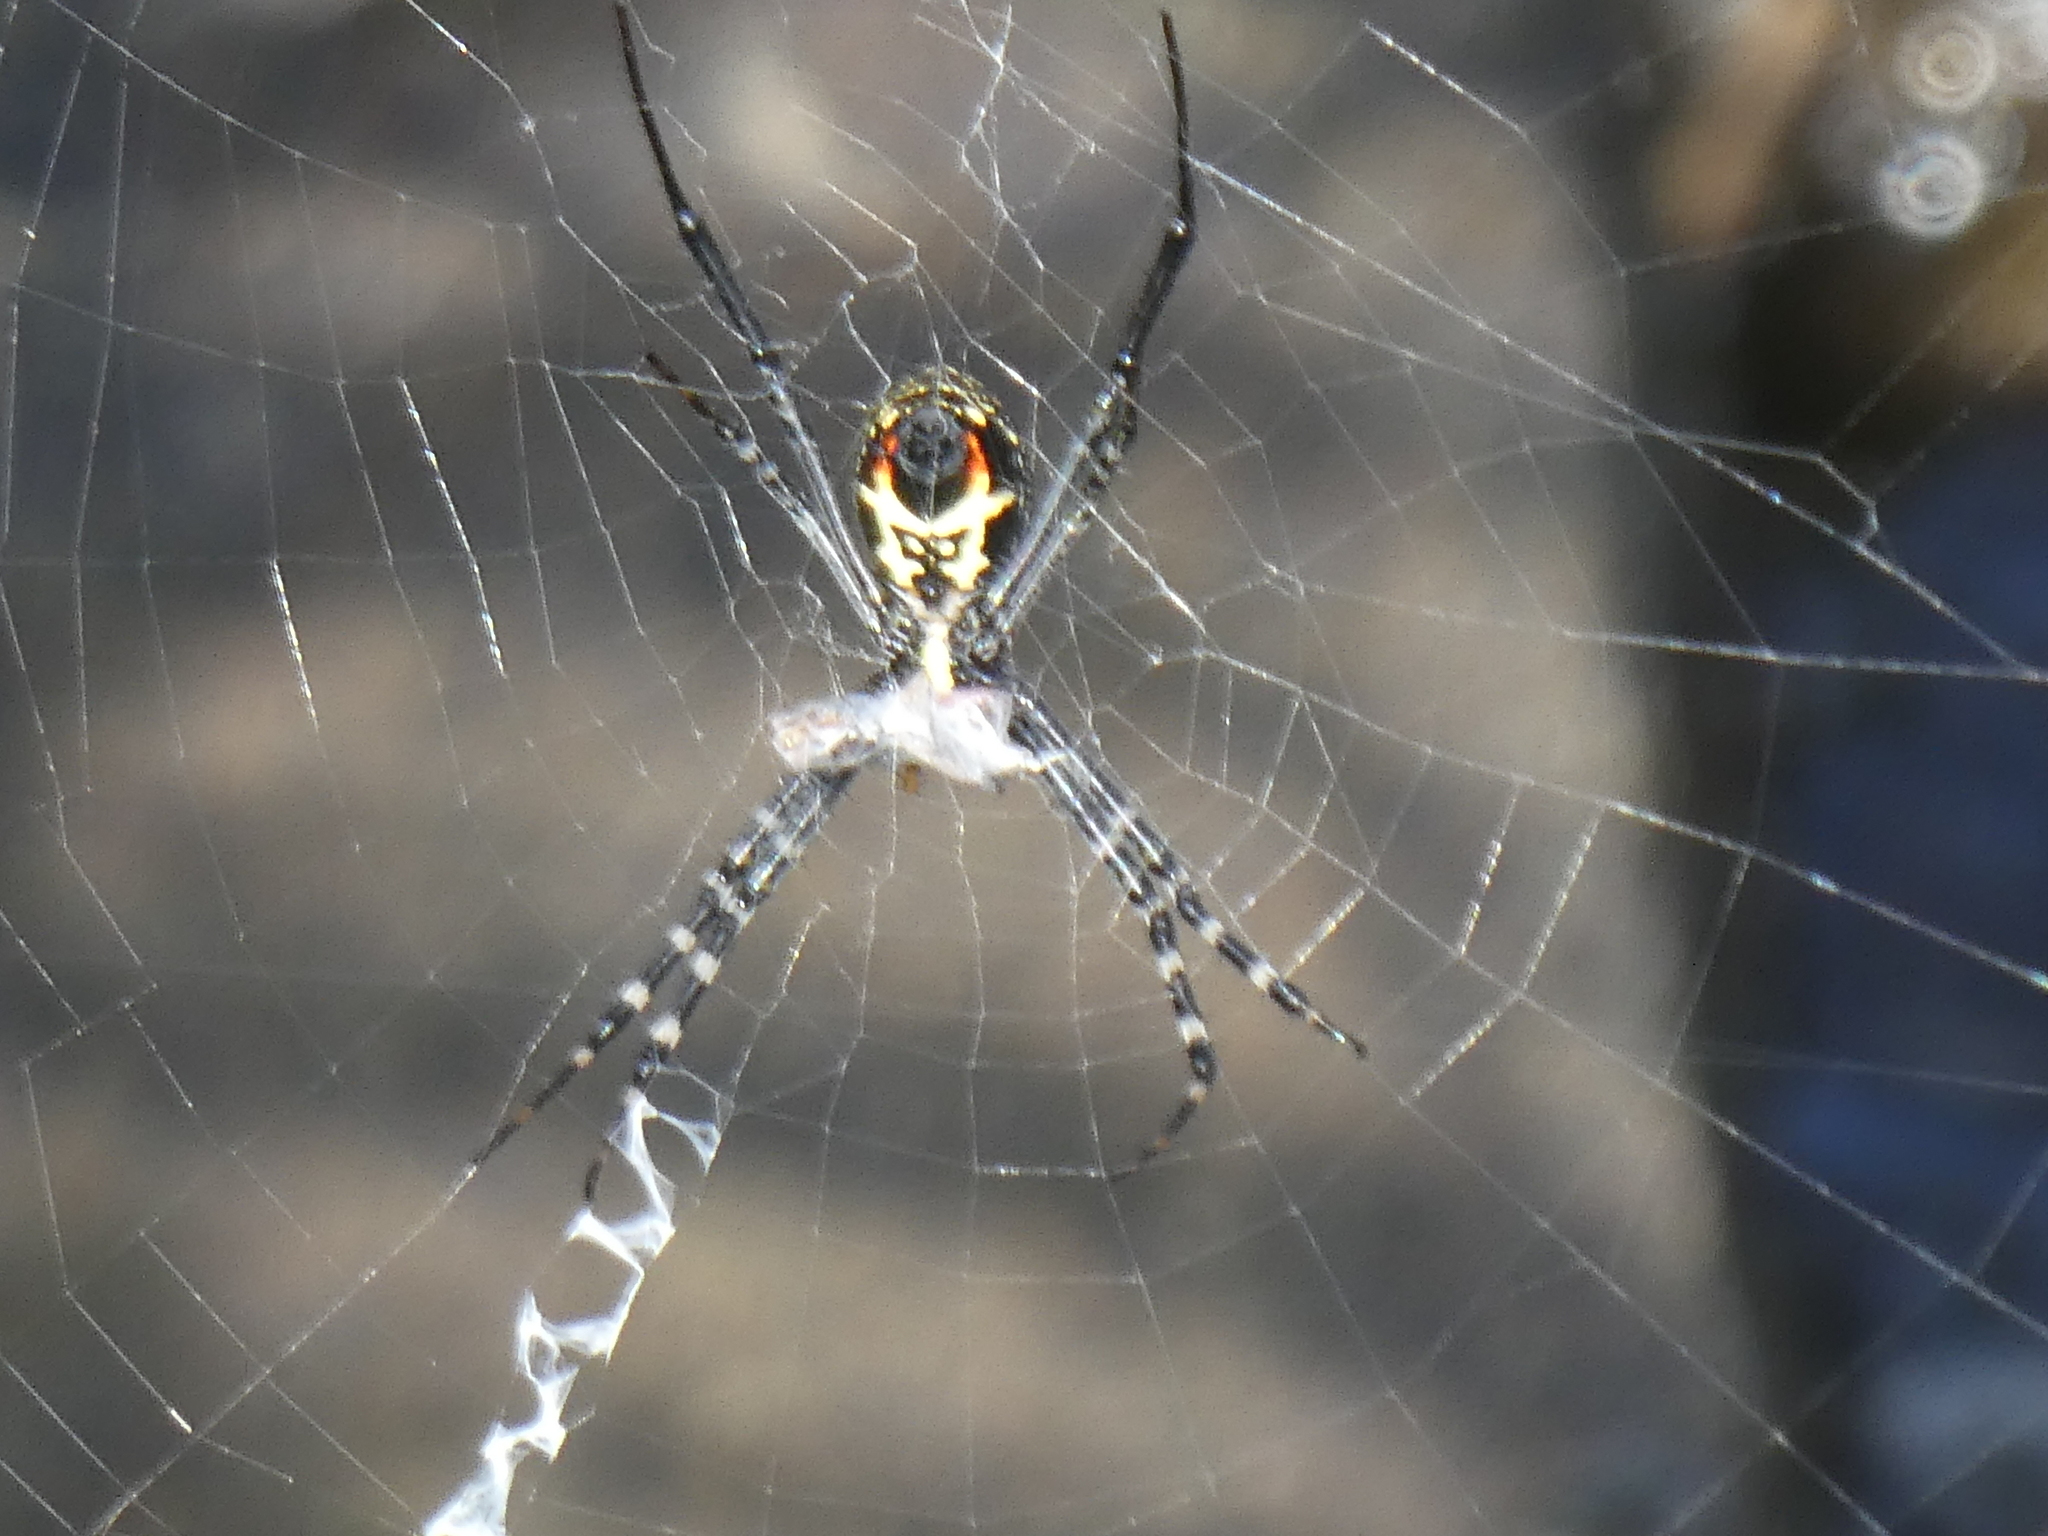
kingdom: Animalia
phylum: Arthropoda
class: Arachnida
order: Araneae
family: Araneidae
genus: Argiope
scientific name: Argiope catenulata
